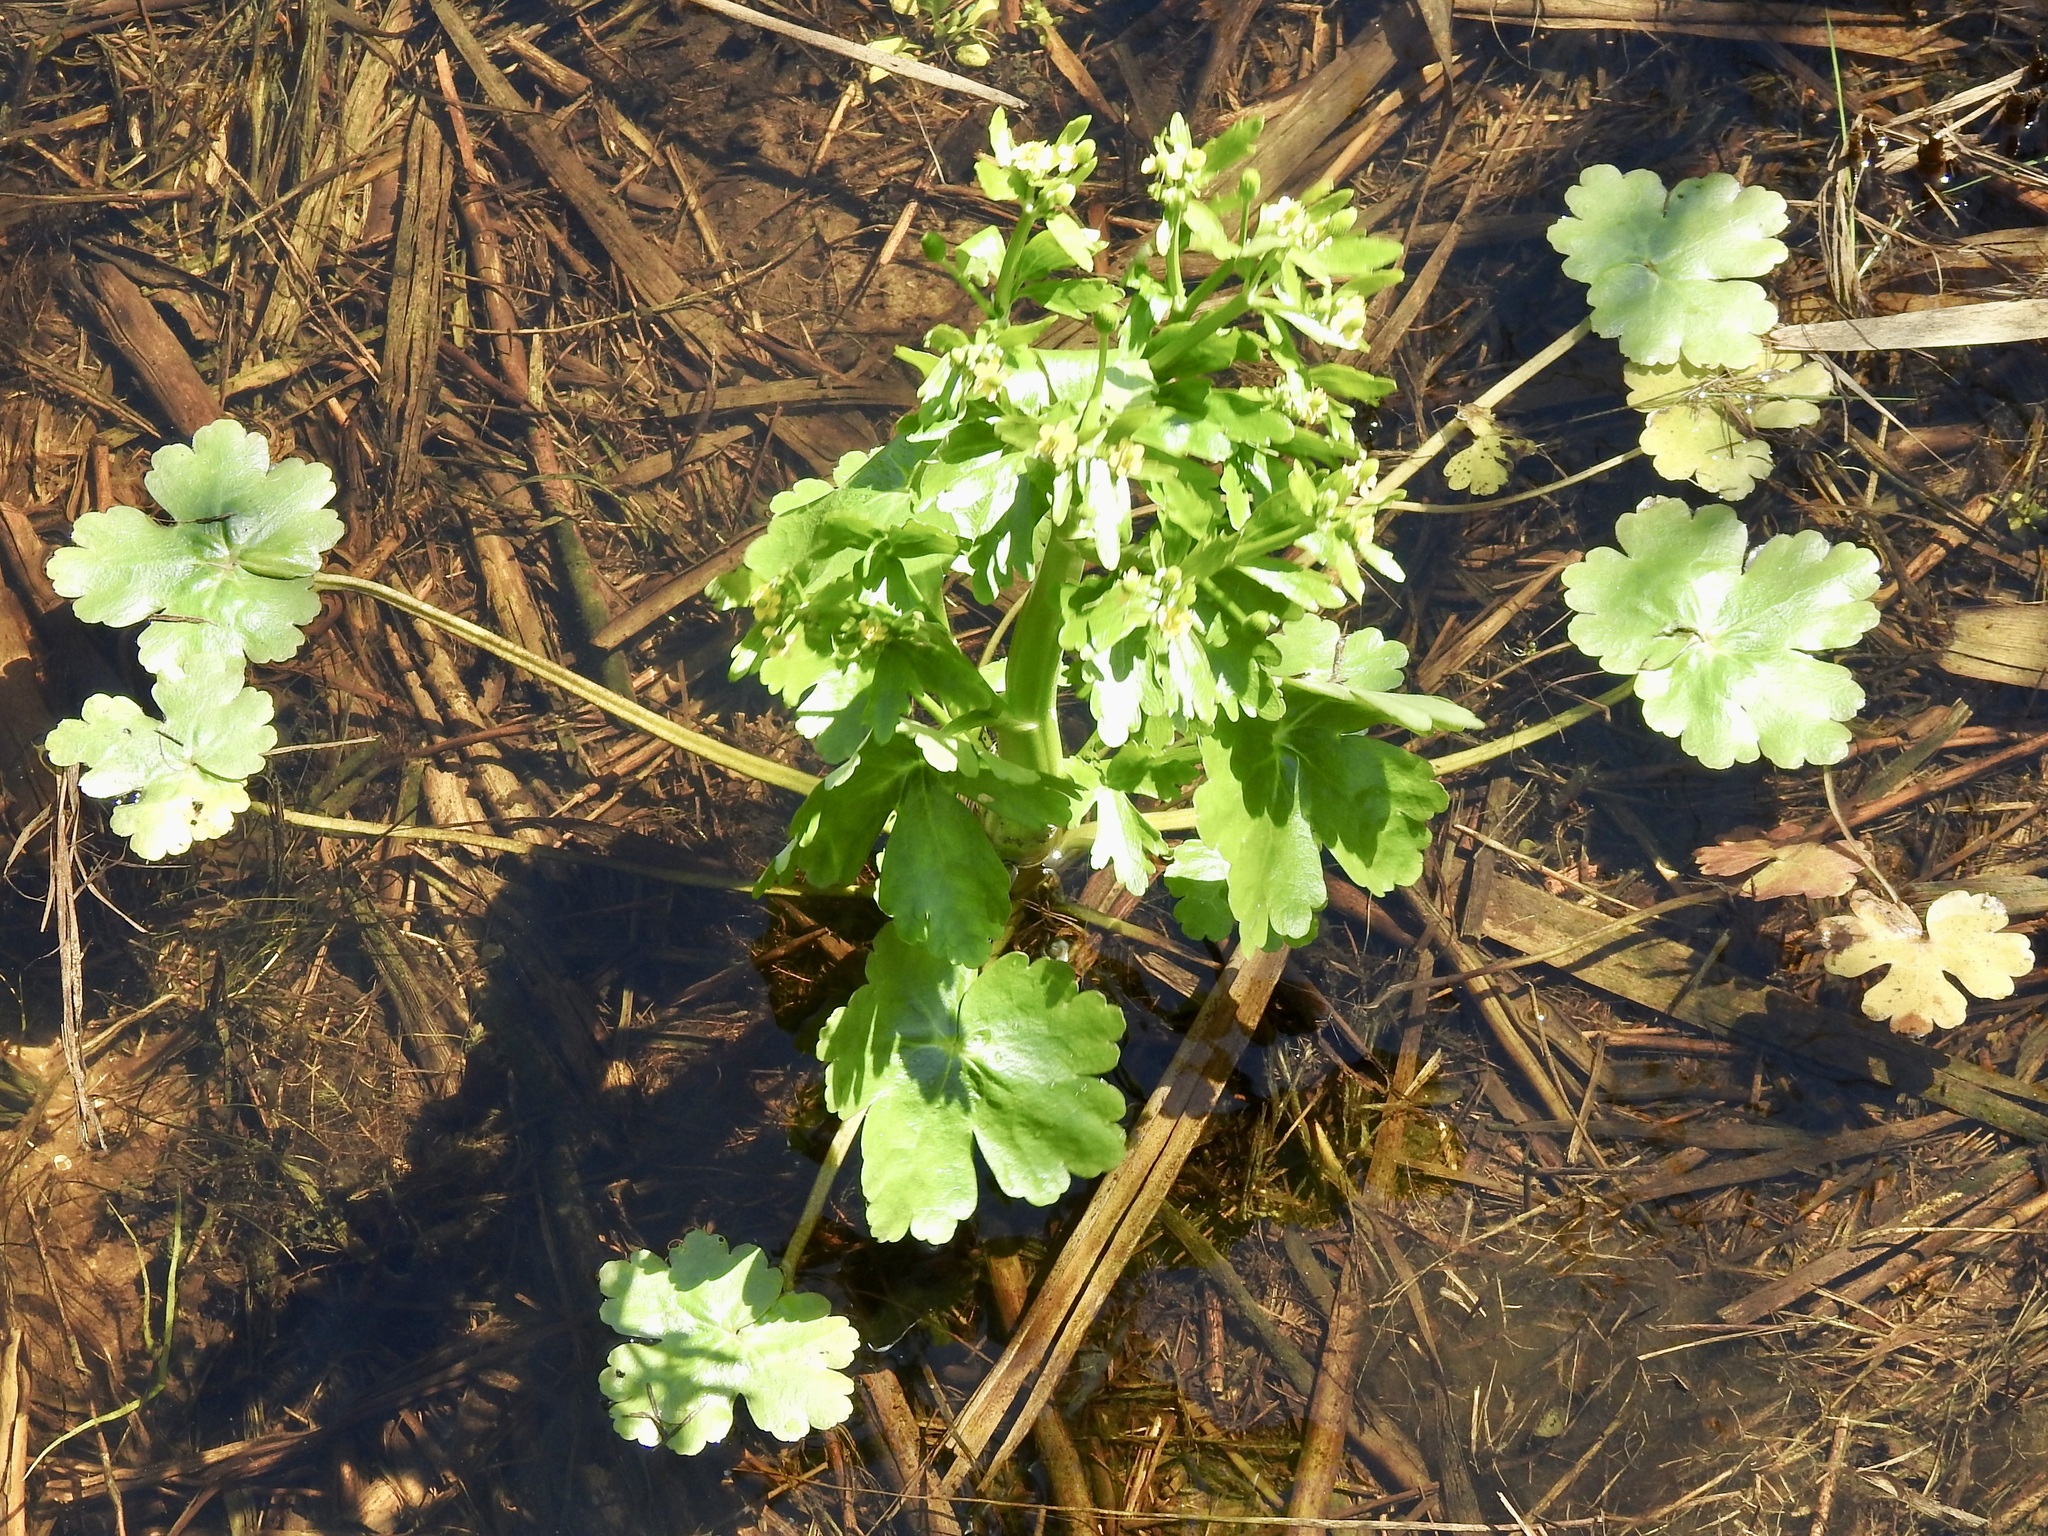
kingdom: Plantae
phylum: Tracheophyta
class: Magnoliopsida
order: Ranunculales
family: Ranunculaceae
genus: Ranunculus
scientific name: Ranunculus sceleratus
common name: Celery-leaved buttercup
